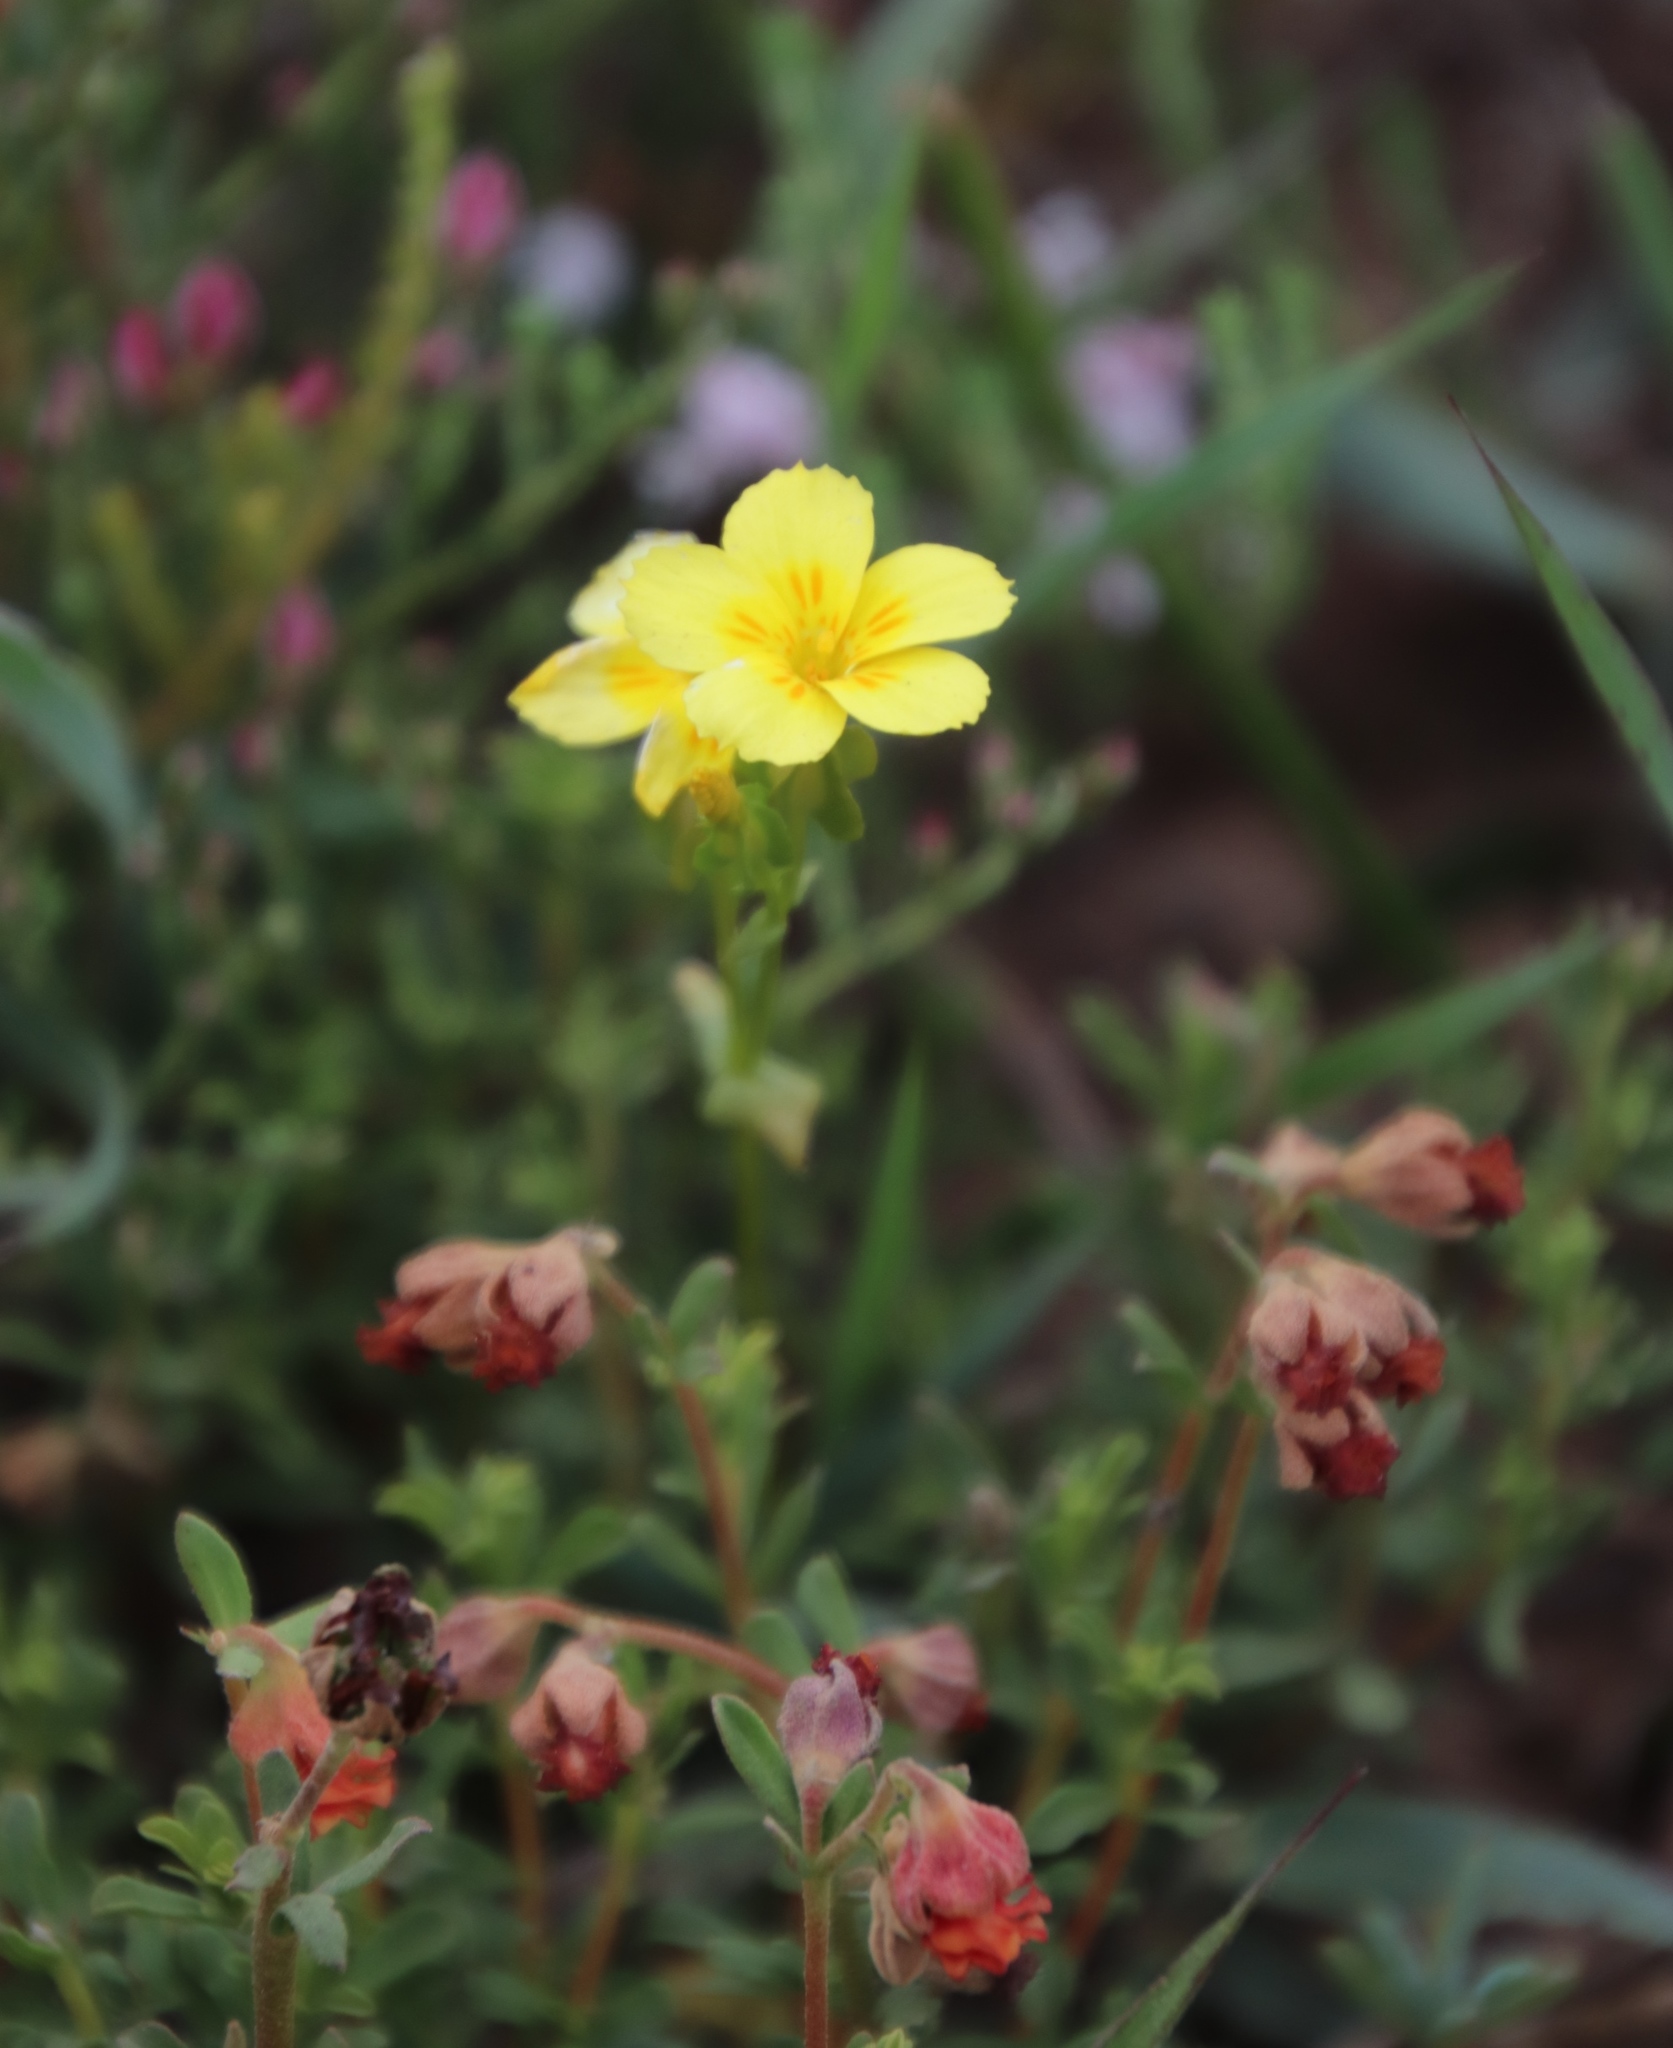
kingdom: Plantae
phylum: Tracheophyta
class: Magnoliopsida
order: Gentianales
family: Gentianaceae
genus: Sebaea
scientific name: Sebaea solaris
